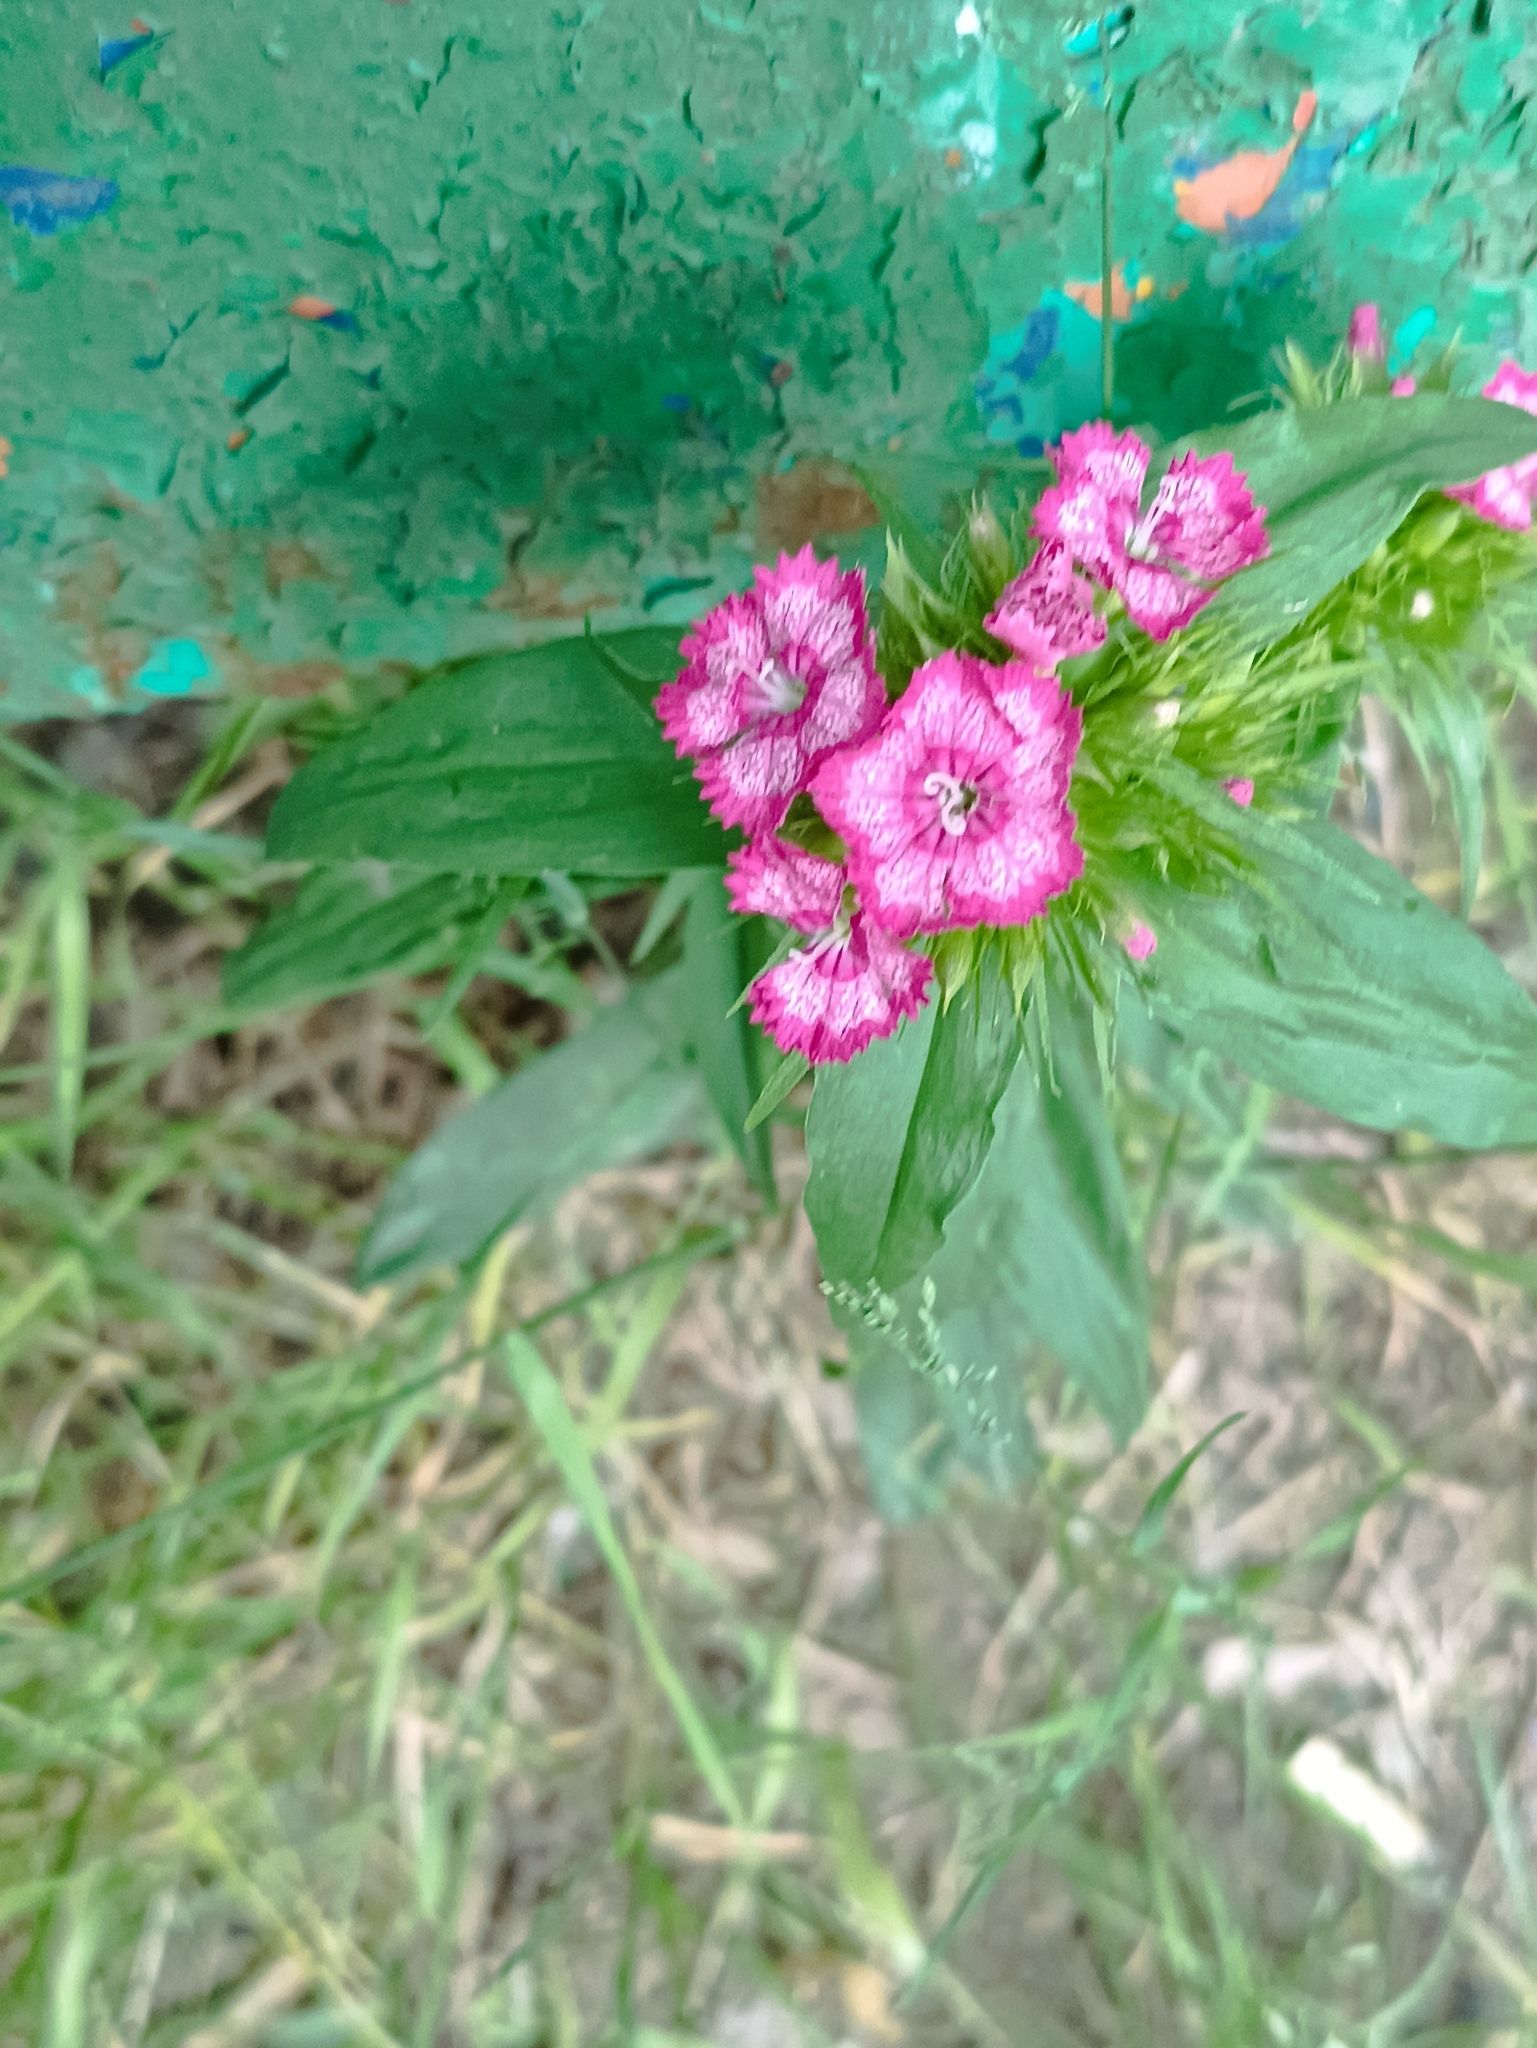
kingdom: Plantae
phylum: Tracheophyta
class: Magnoliopsida
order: Caryophyllales
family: Caryophyllaceae
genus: Dianthus
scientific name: Dianthus barbatus
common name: Sweet-william
